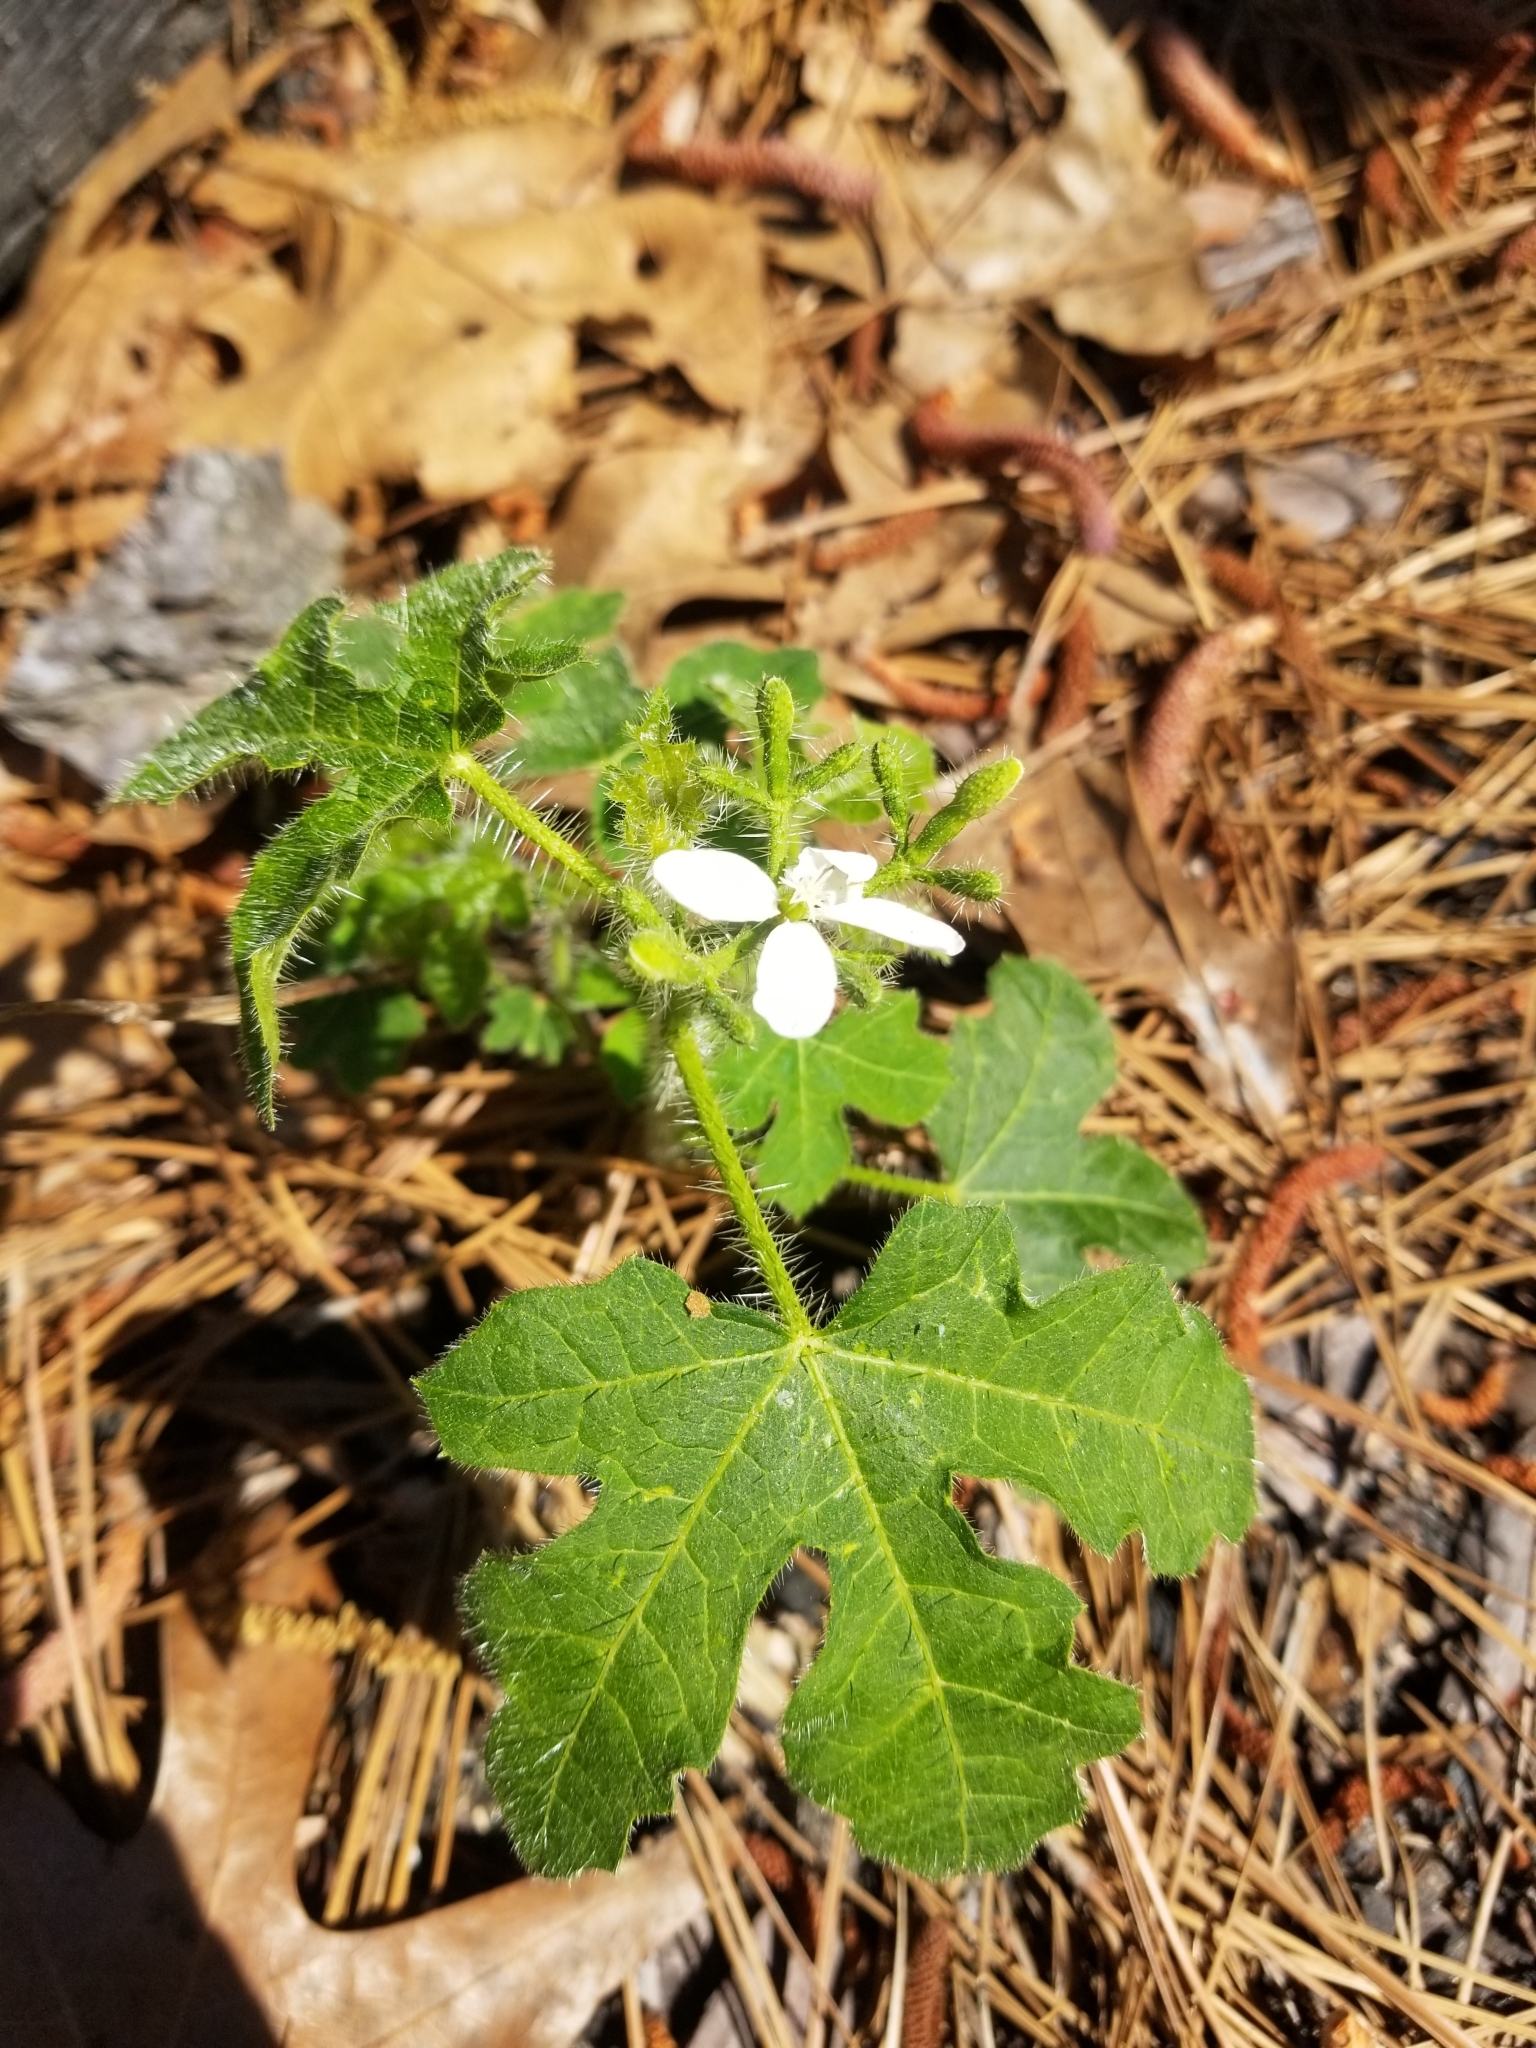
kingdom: Plantae
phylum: Tracheophyta
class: Magnoliopsida
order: Malpighiales
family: Euphorbiaceae
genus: Cnidoscolus
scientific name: Cnidoscolus stimulosus
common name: Bull-nettle
